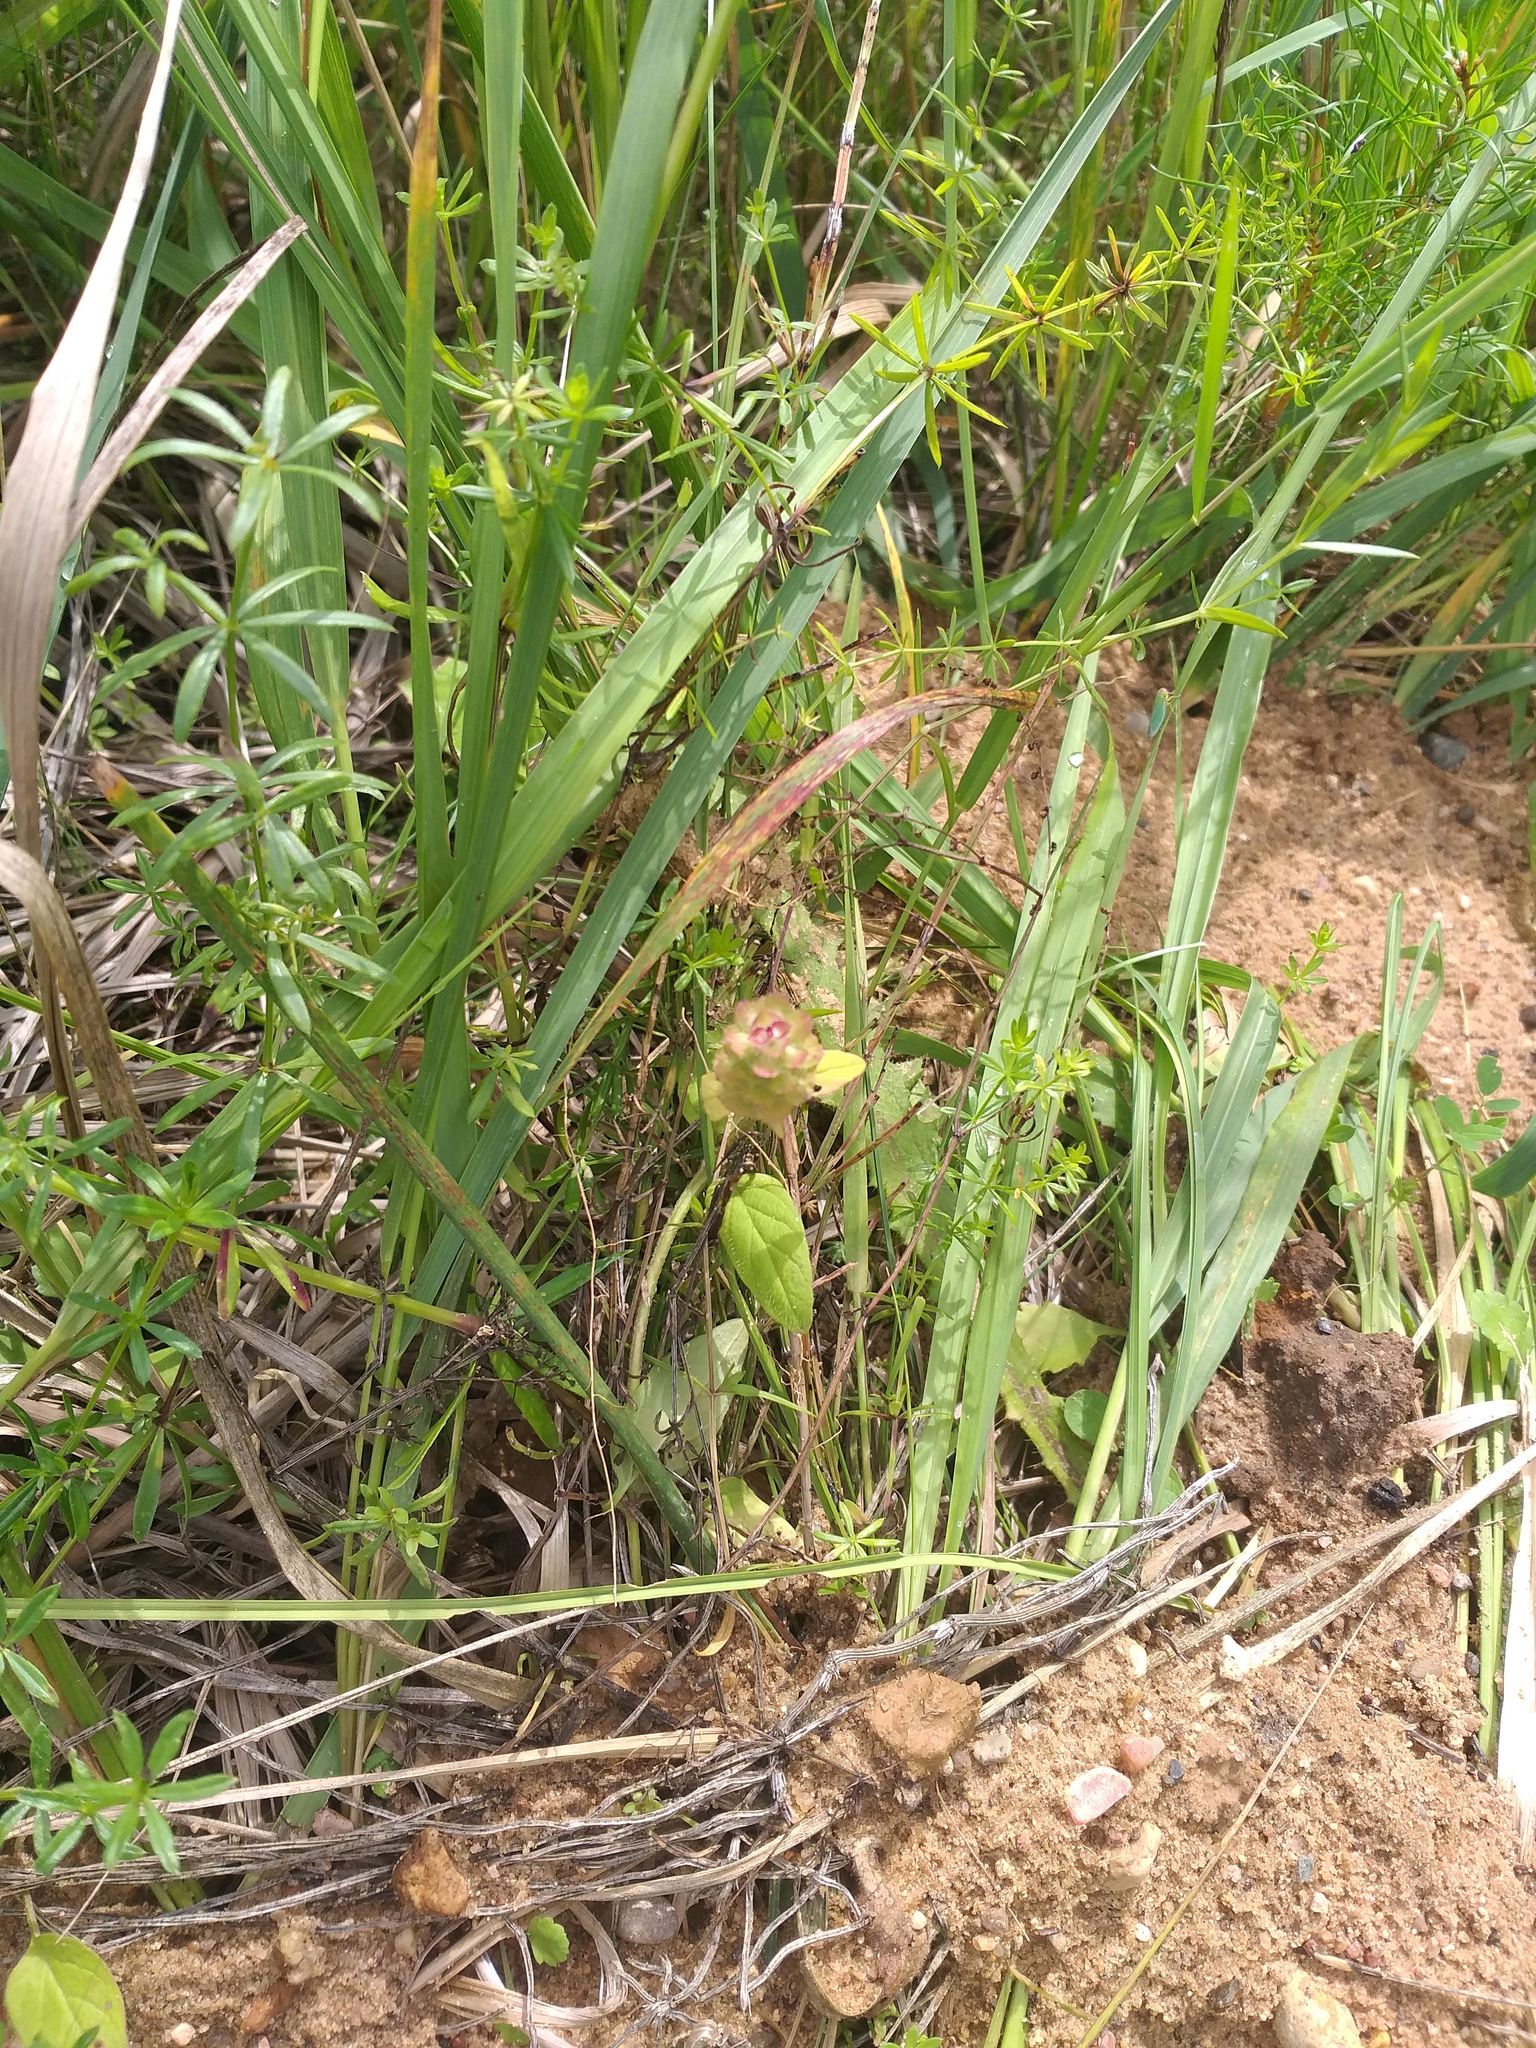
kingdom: Plantae
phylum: Tracheophyta
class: Magnoliopsida
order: Lamiales
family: Lamiaceae
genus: Prunella
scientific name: Prunella vulgaris
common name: Heal-all
